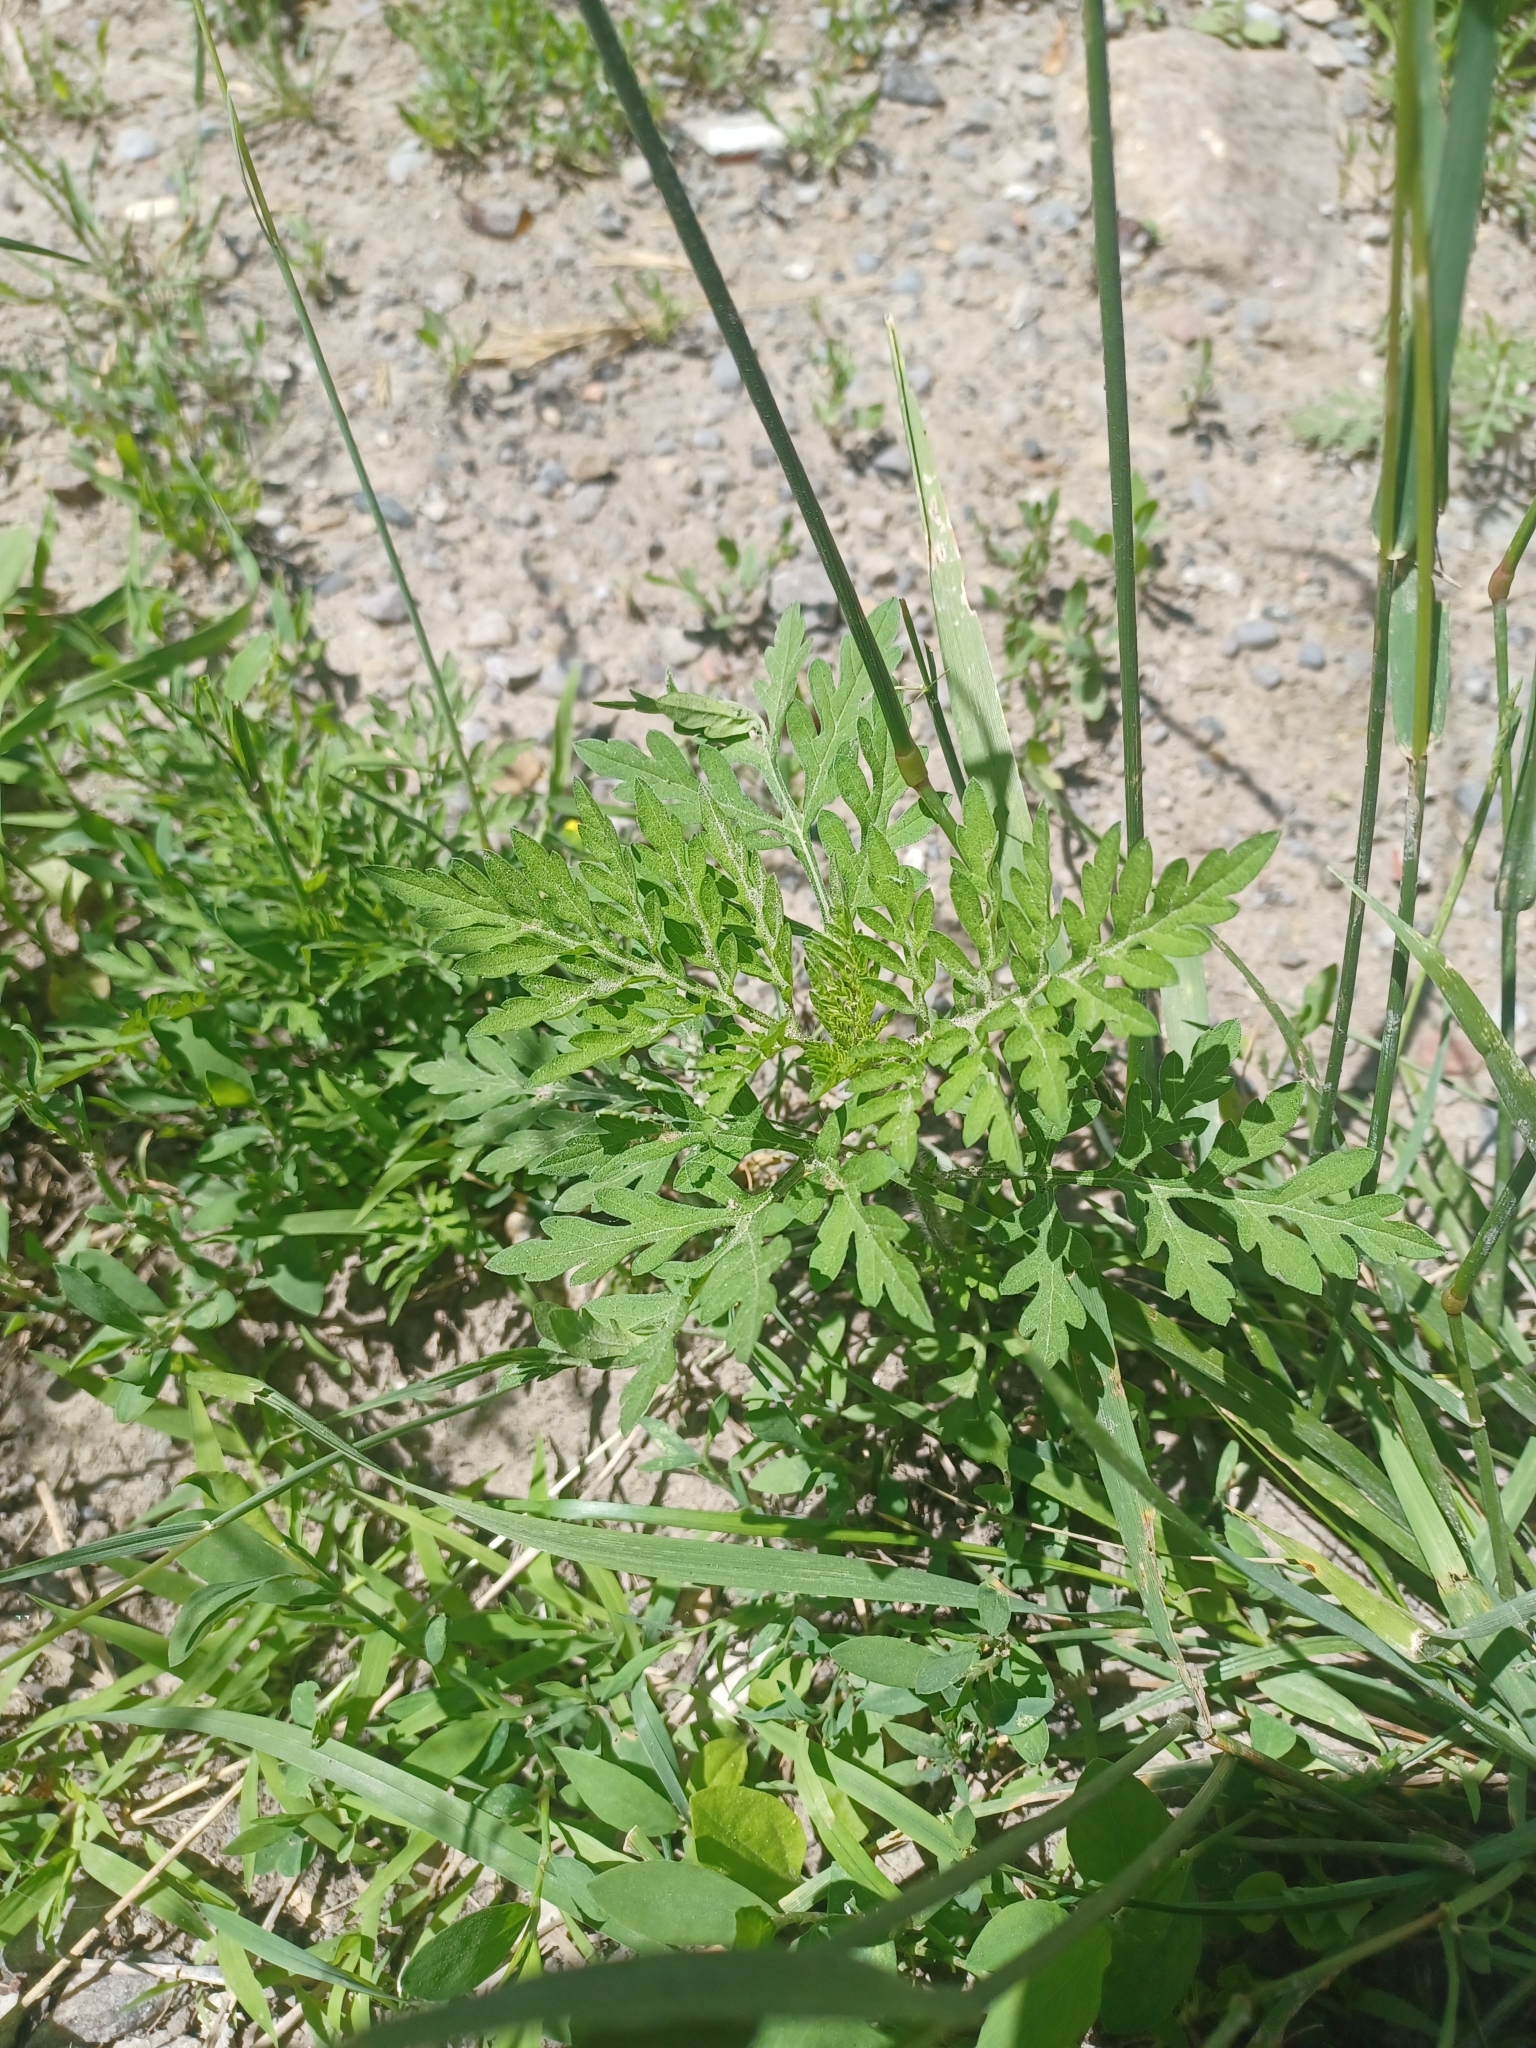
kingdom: Plantae
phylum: Tracheophyta
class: Magnoliopsida
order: Asterales
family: Asteraceae
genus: Ambrosia
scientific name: Ambrosia artemisiifolia
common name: Annual ragweed
